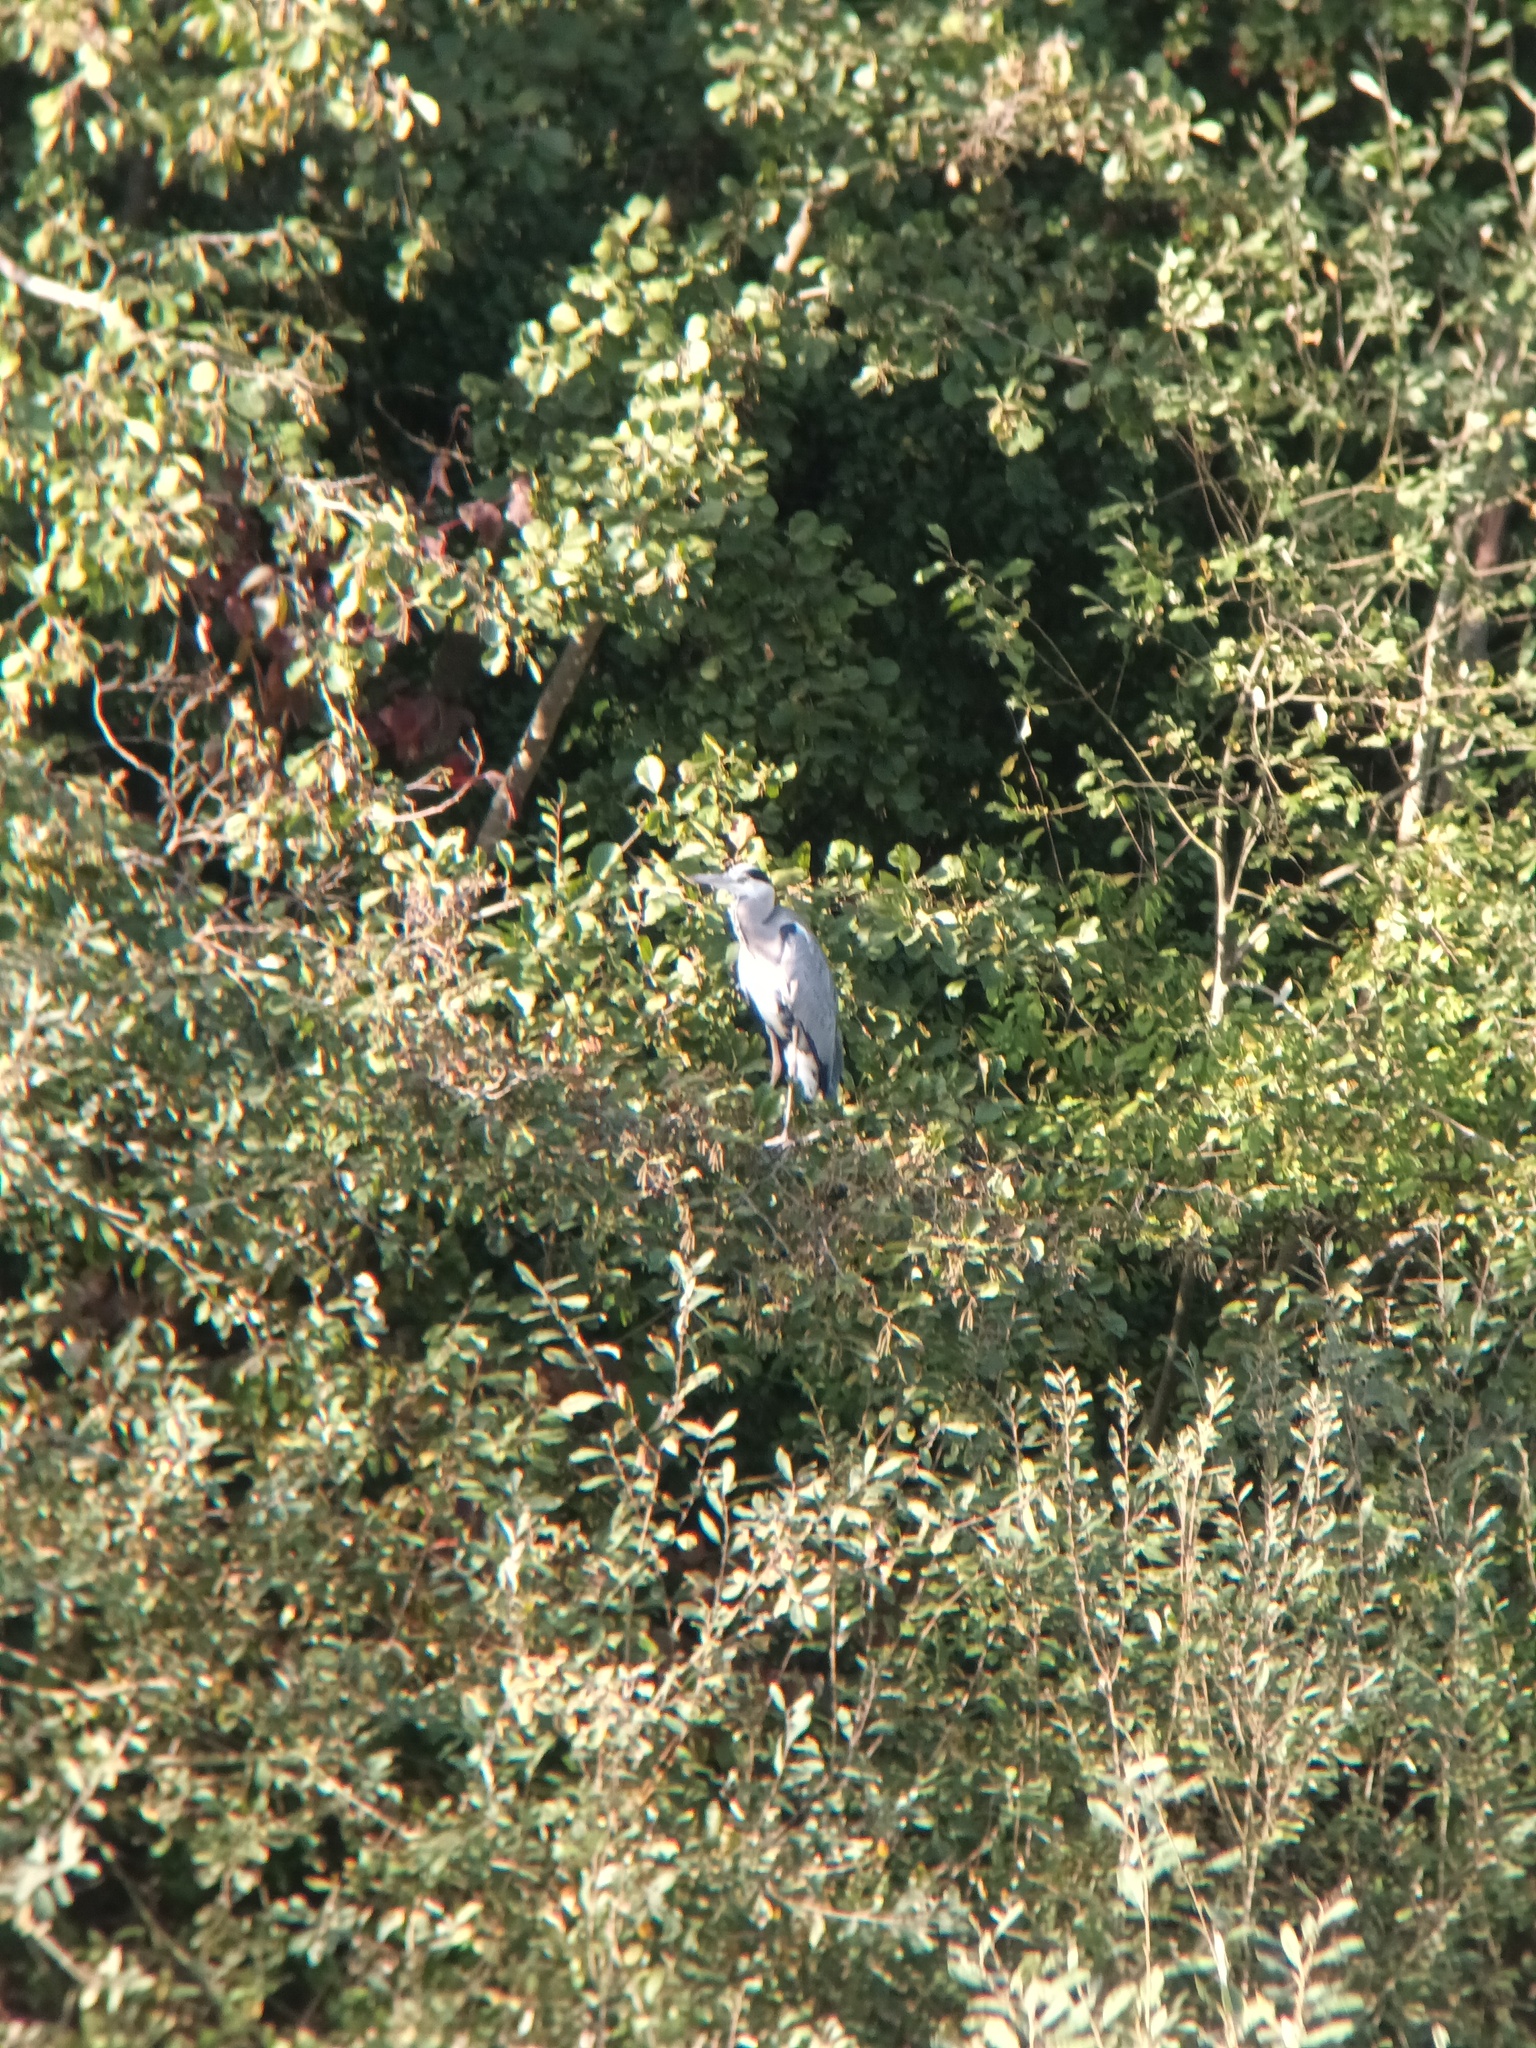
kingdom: Animalia
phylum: Chordata
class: Aves
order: Pelecaniformes
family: Ardeidae
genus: Ardea
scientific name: Ardea cinerea
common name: Grey heron
